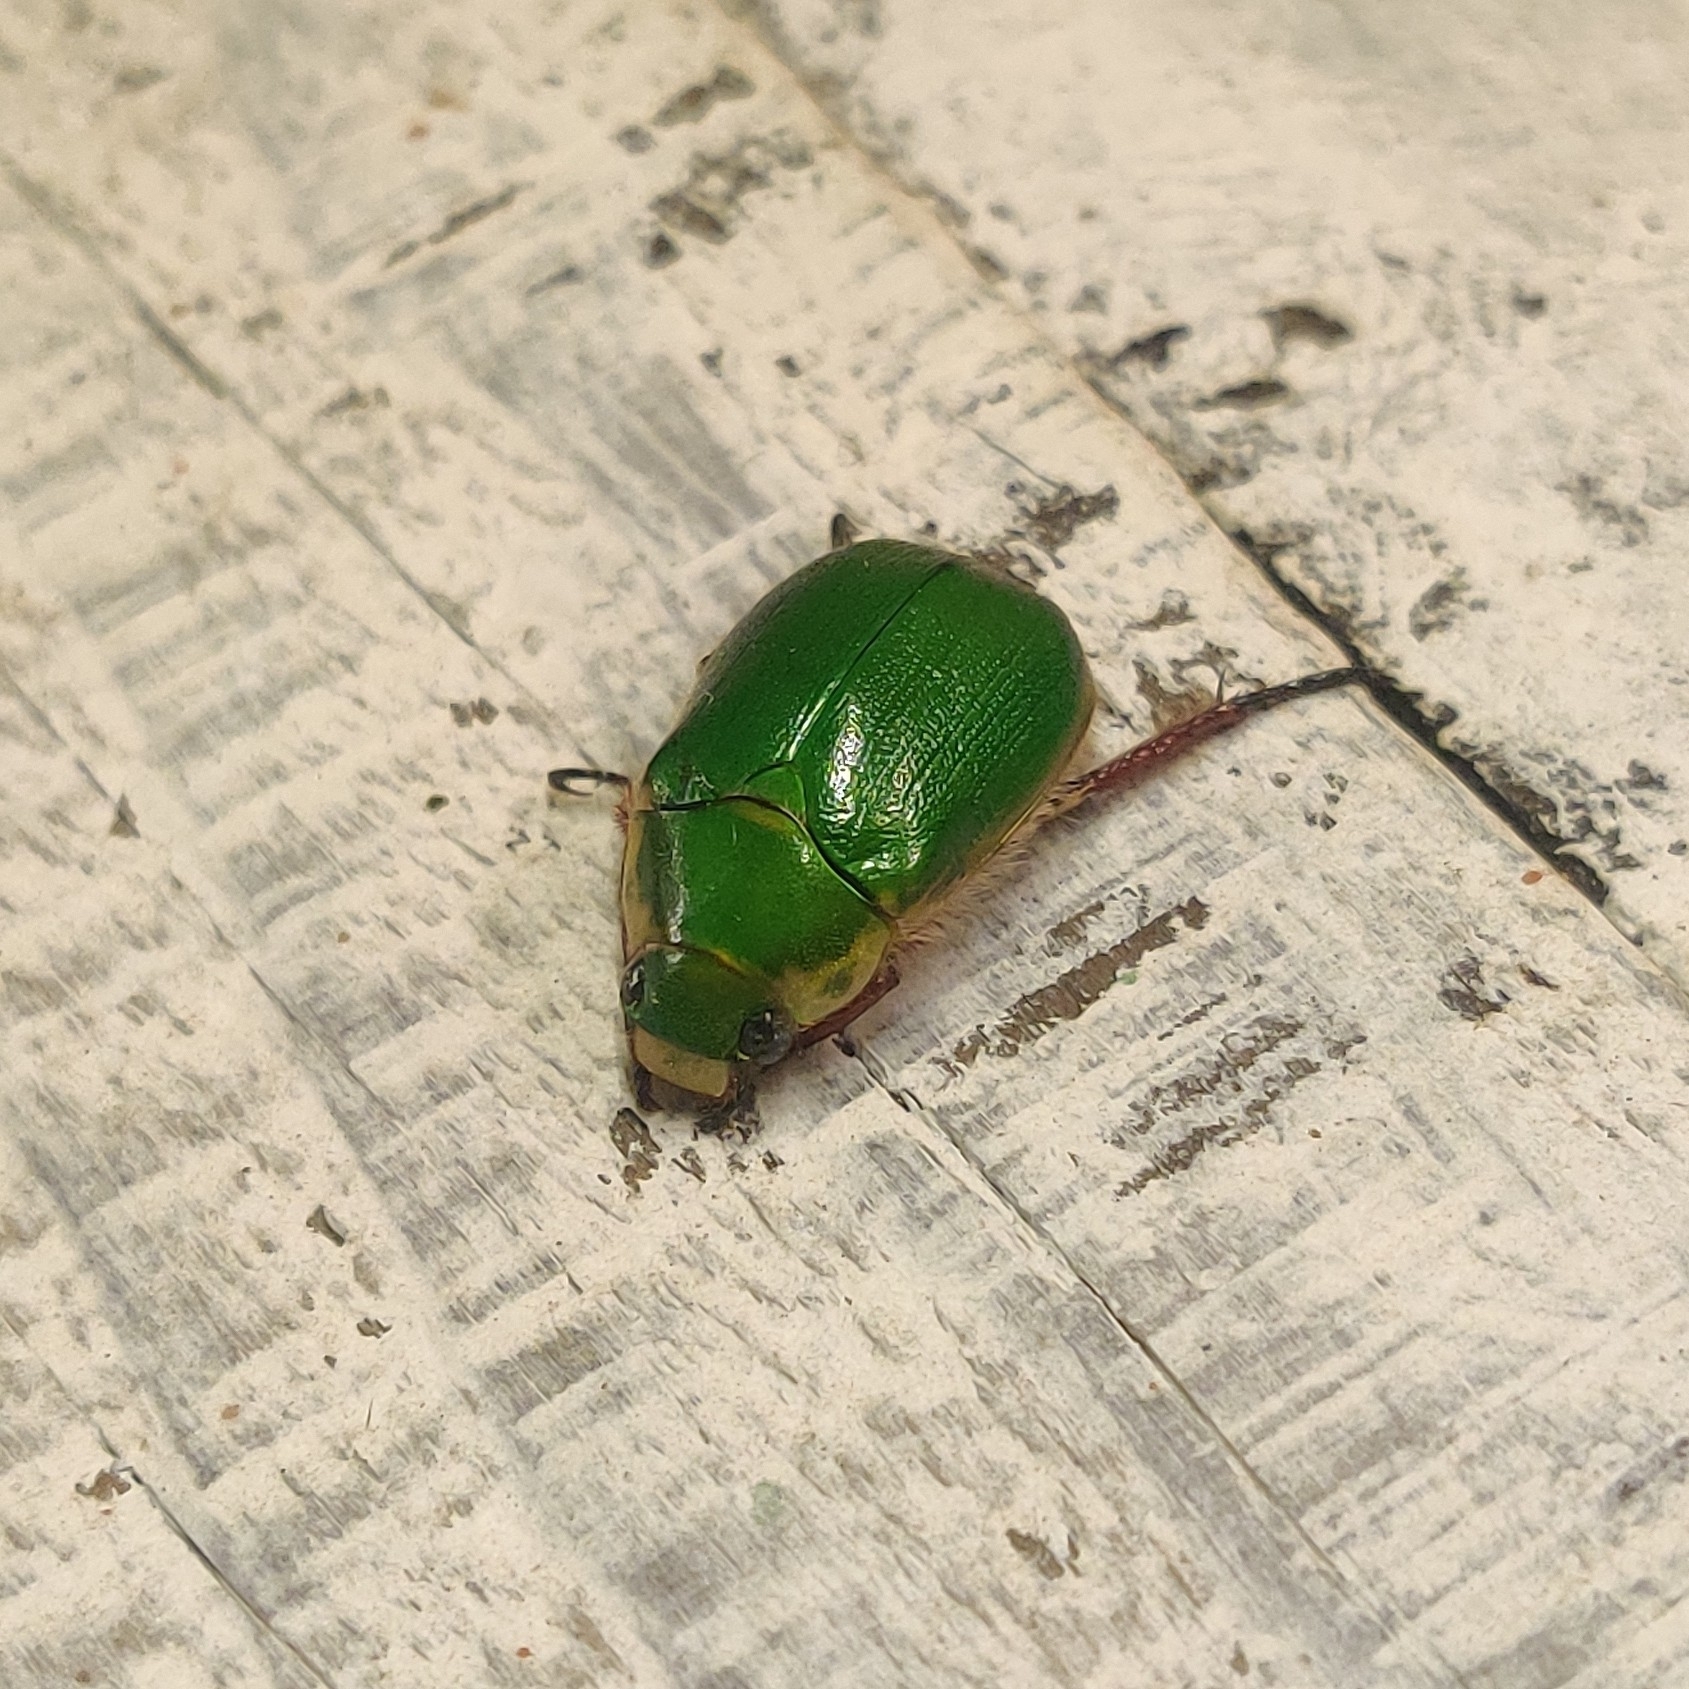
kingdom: Animalia
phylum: Arthropoda
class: Insecta
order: Coleoptera
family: Scarabaeidae
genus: Mimela
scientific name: Mimela passerinii
